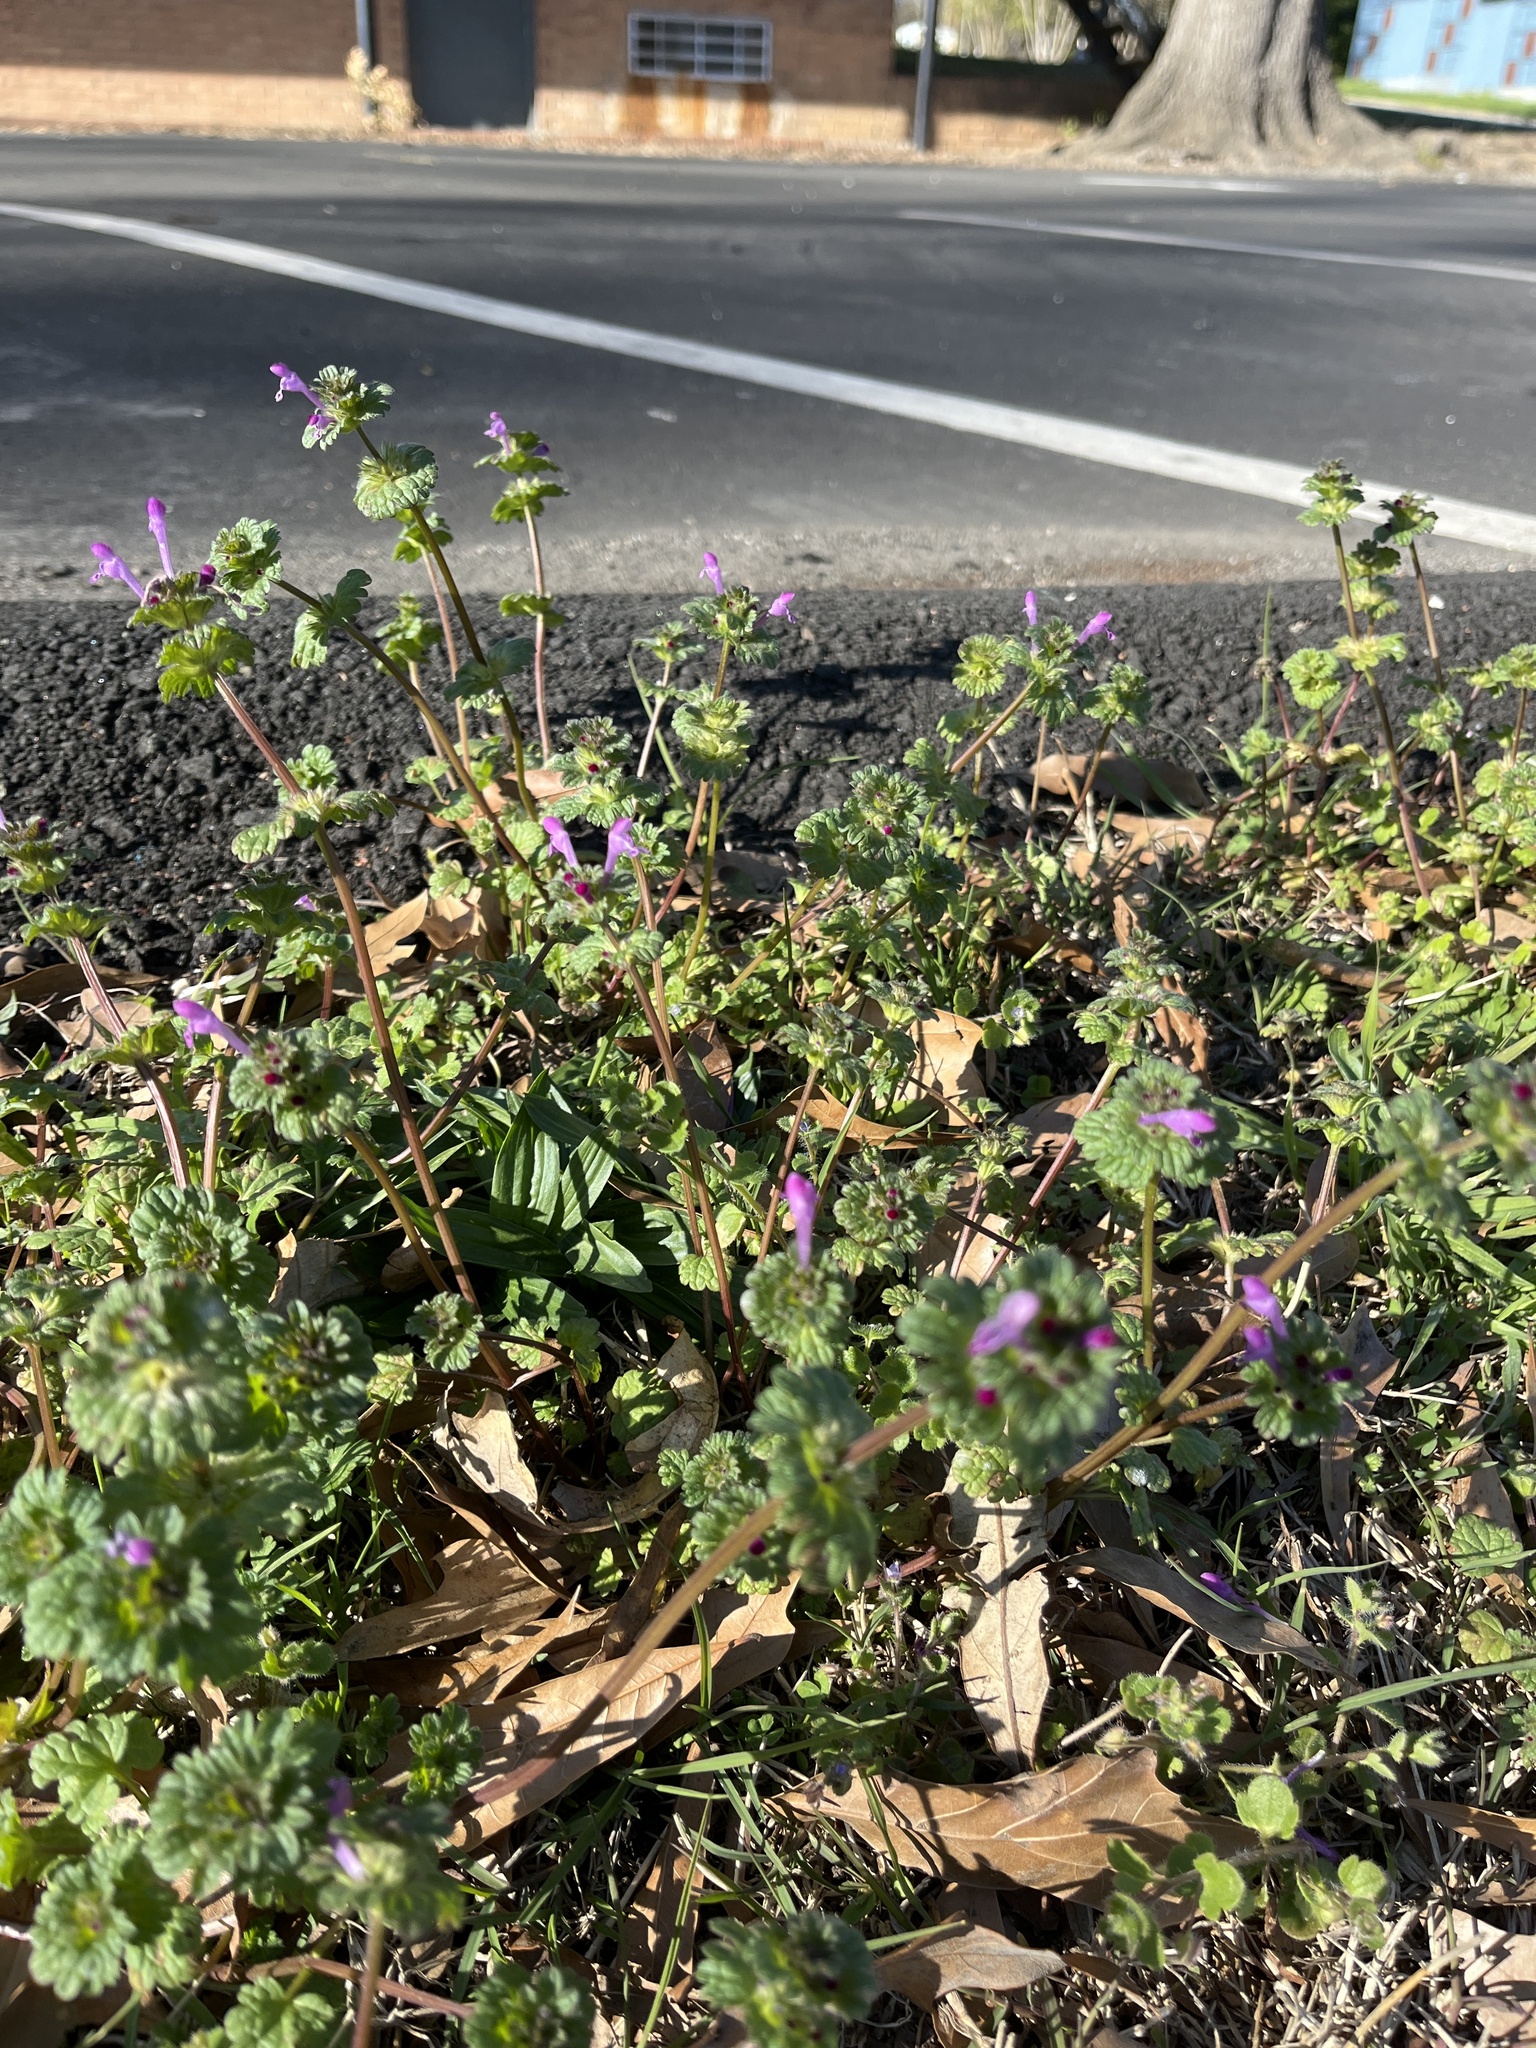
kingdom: Plantae
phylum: Tracheophyta
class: Magnoliopsida
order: Lamiales
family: Lamiaceae
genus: Lamium
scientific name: Lamium amplexicaule
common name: Henbit dead-nettle
